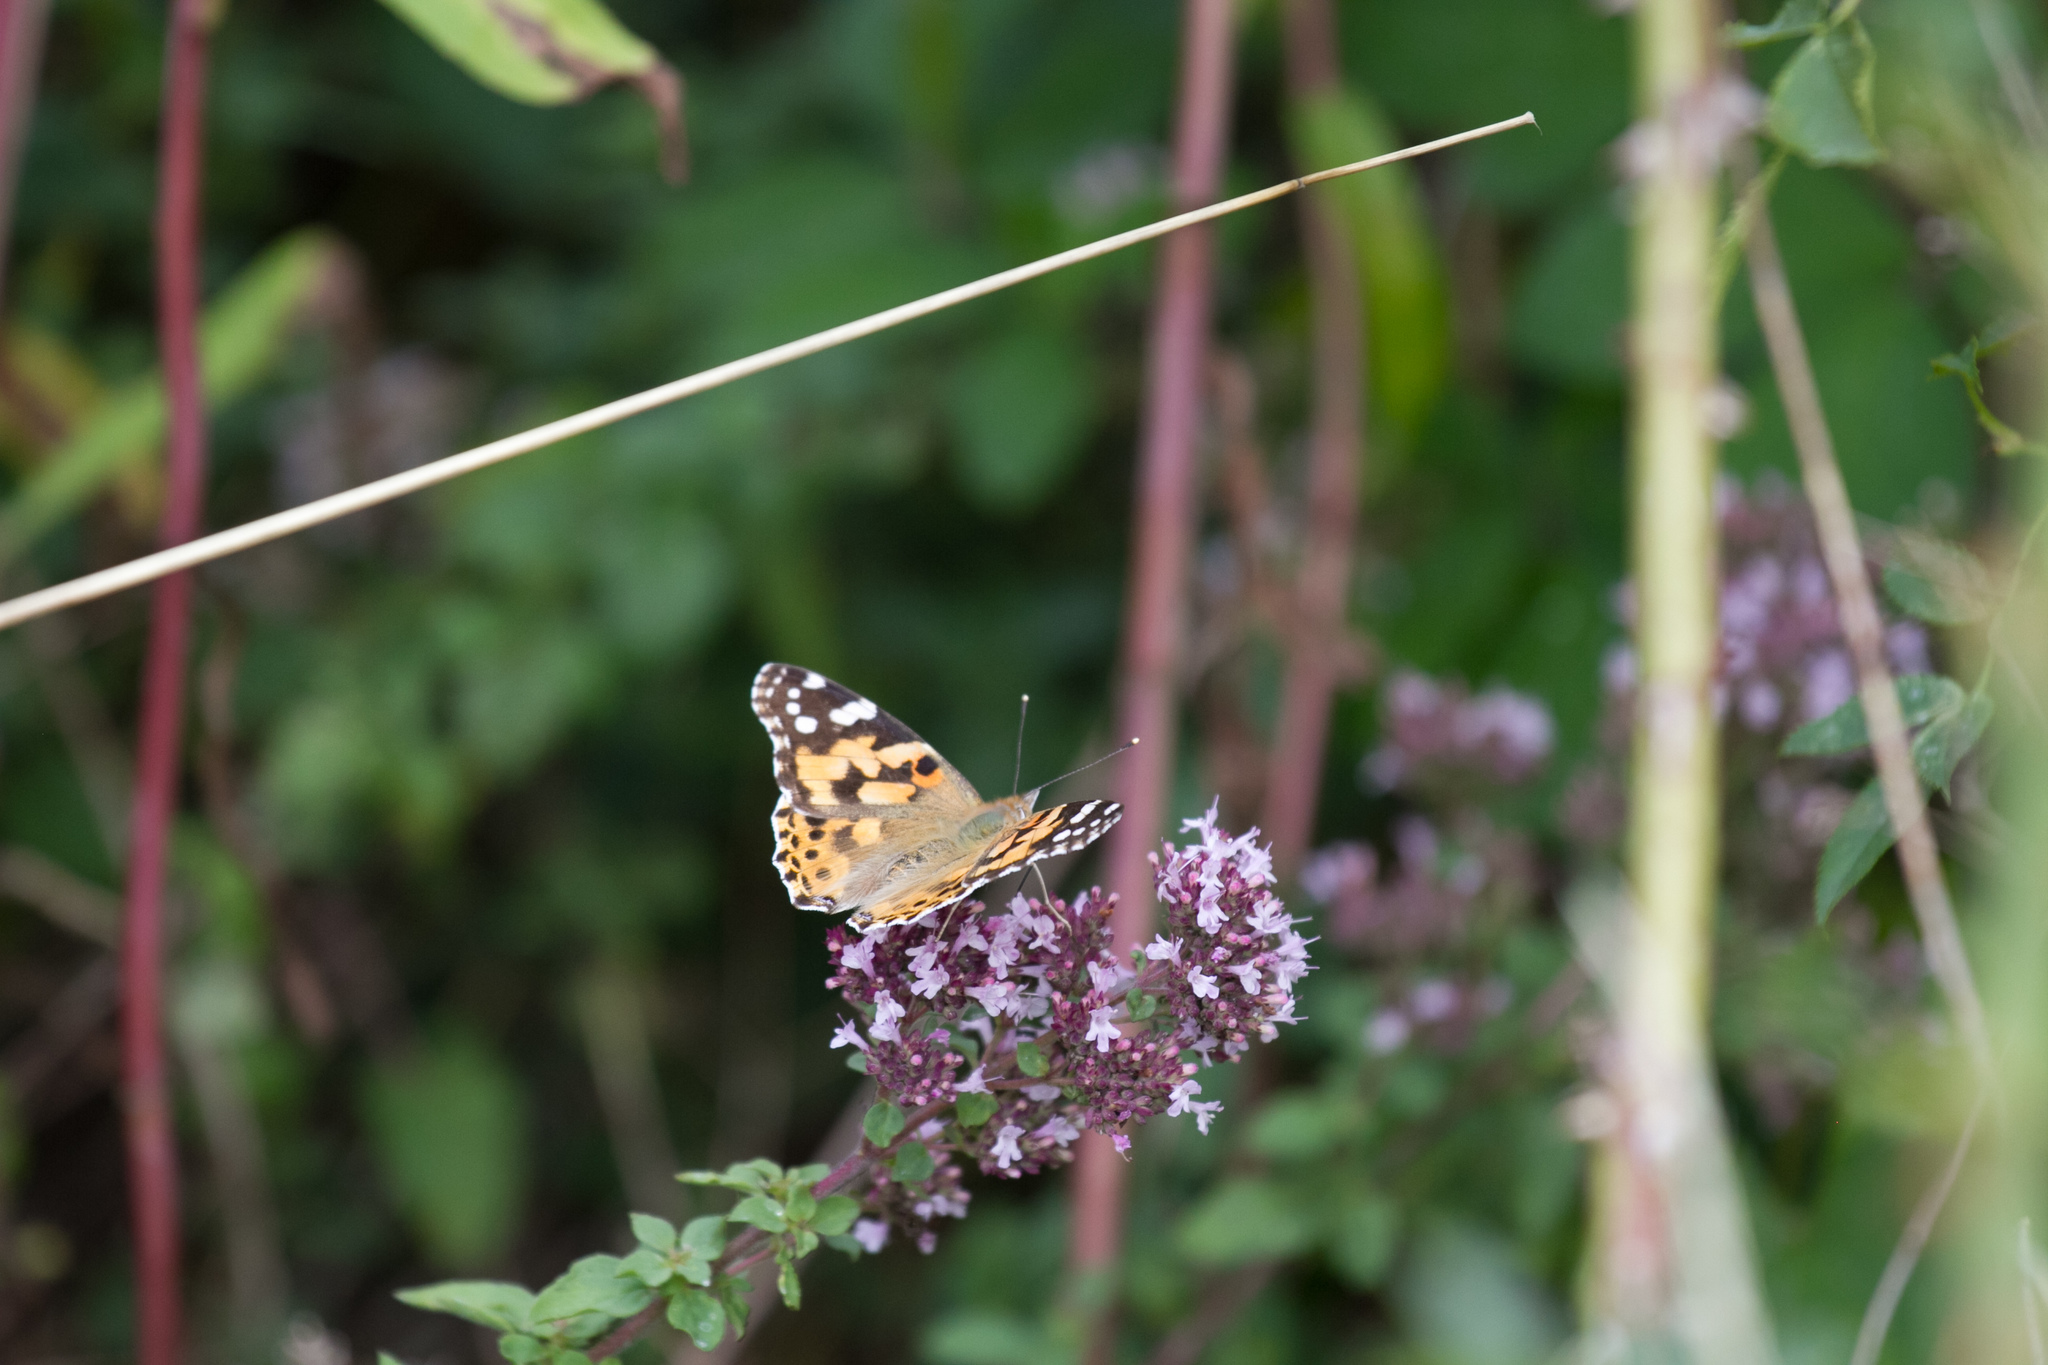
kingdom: Animalia
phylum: Arthropoda
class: Insecta
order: Lepidoptera
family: Nymphalidae
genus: Vanessa
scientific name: Vanessa cardui
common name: Painted lady
